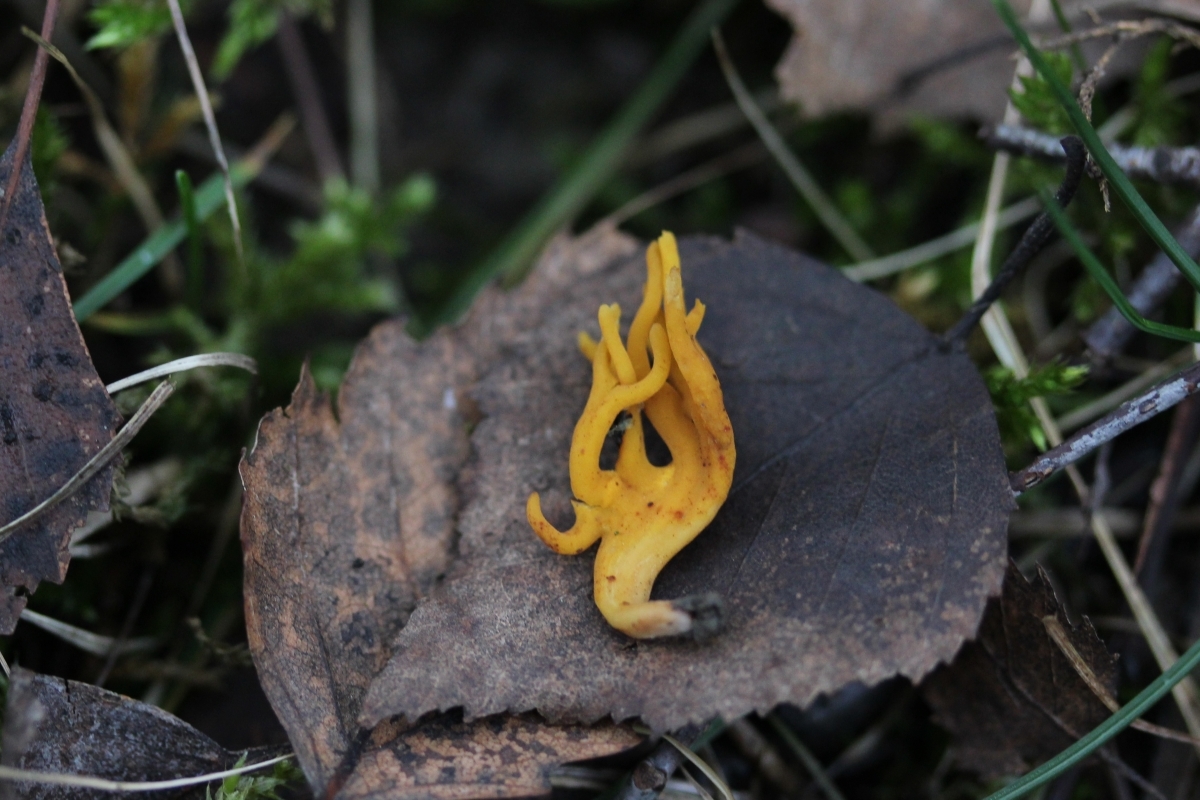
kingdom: Fungi
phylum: Basidiomycota
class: Dacrymycetes
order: Dacrymycetales
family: Dacrymycetaceae
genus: Calocera
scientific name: Calocera viscosa
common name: Yellow stagshorn
